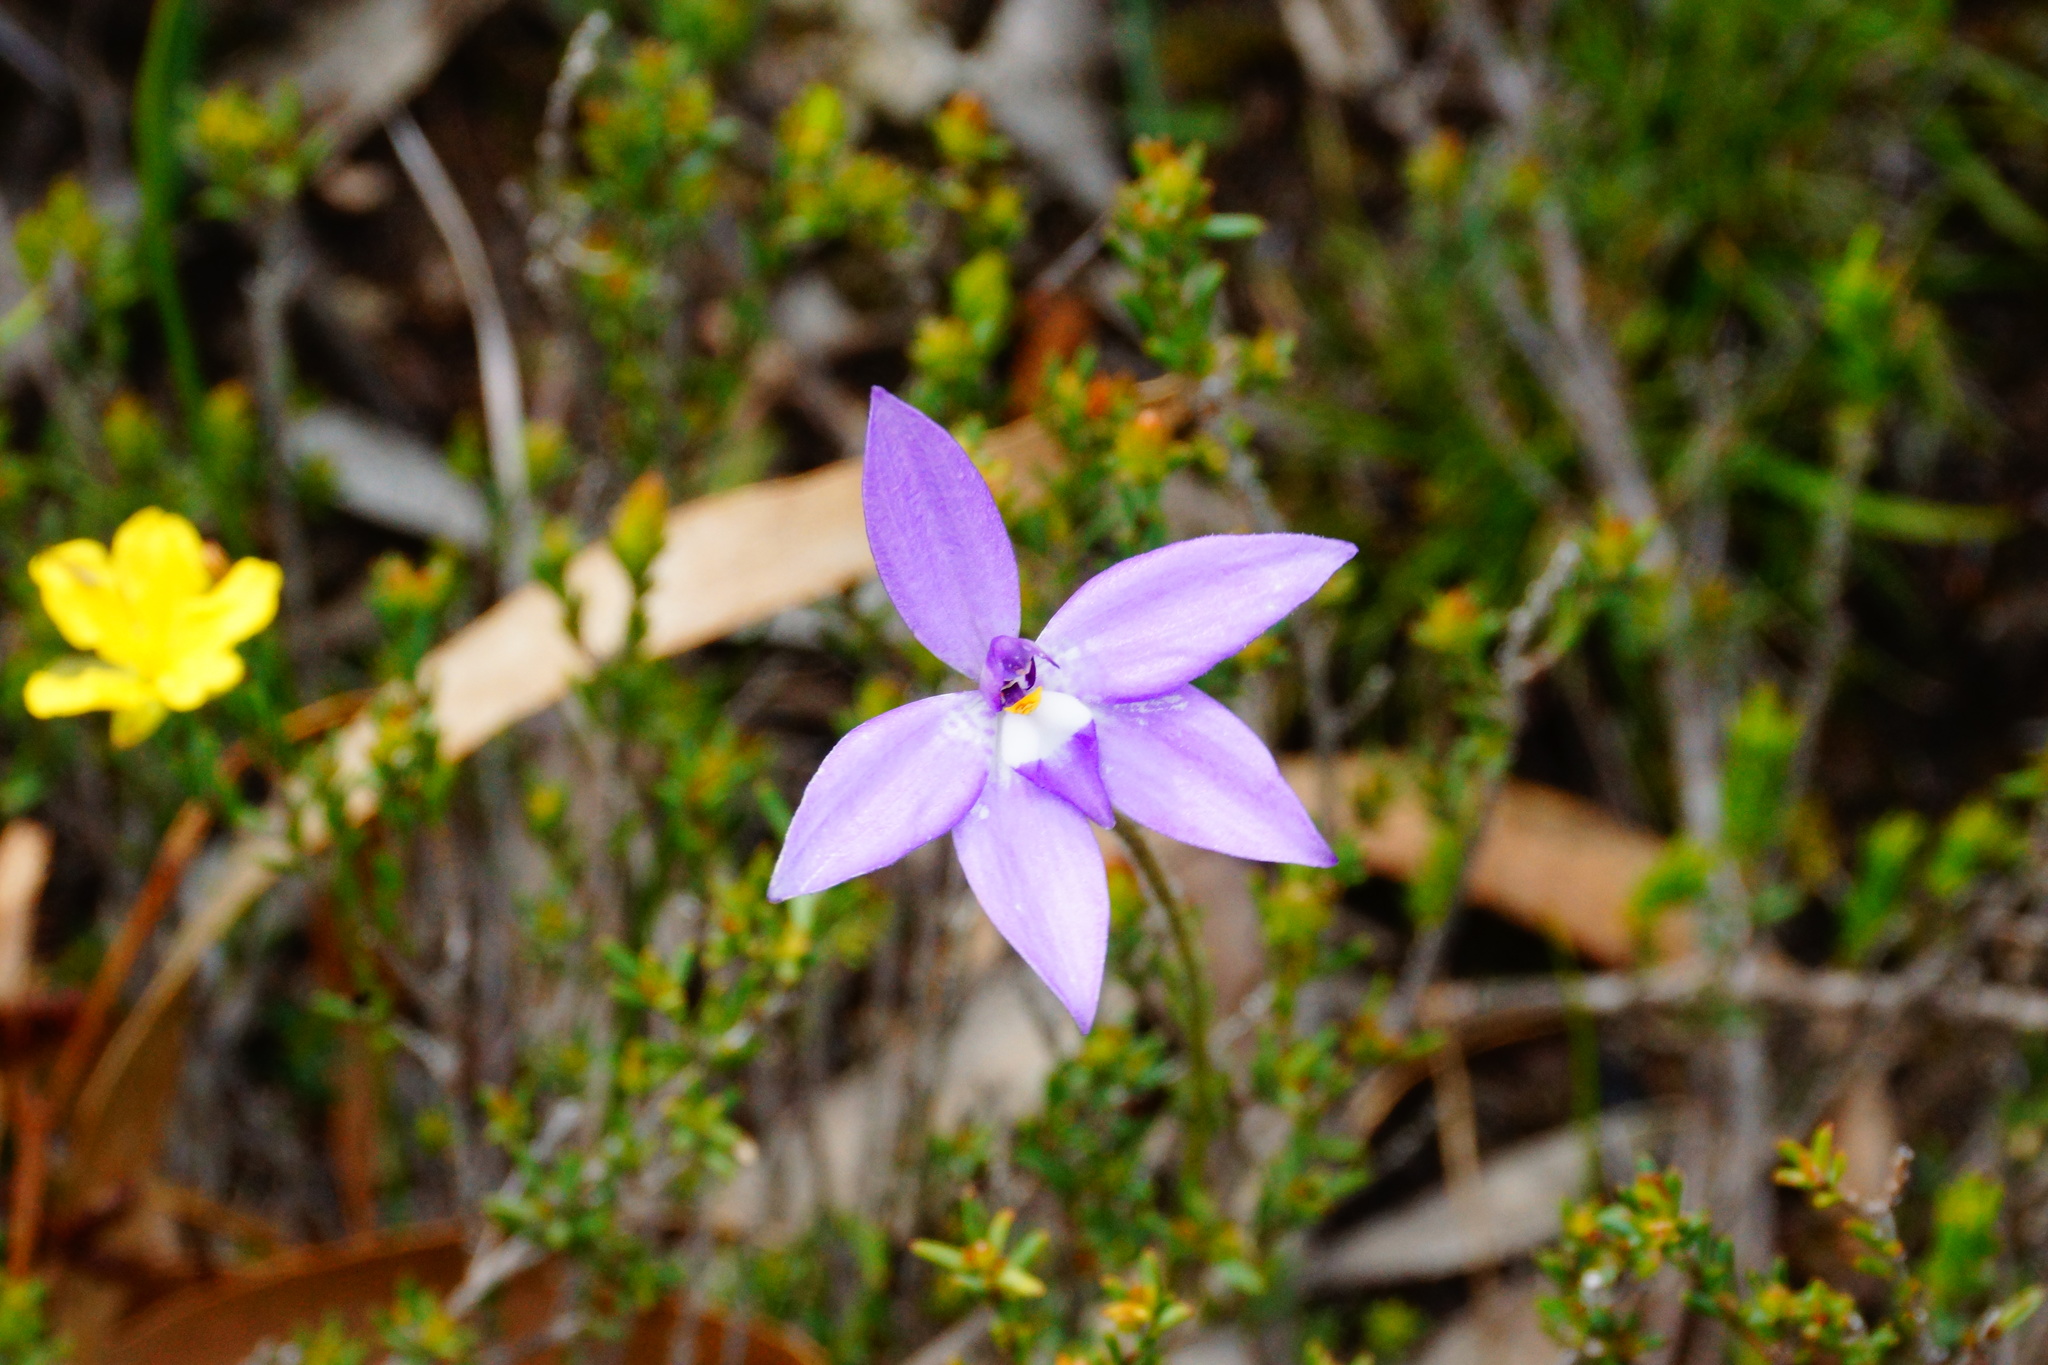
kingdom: Plantae
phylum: Tracheophyta
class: Liliopsida
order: Asparagales
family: Orchidaceae
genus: Caladenia
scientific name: Caladenia major
